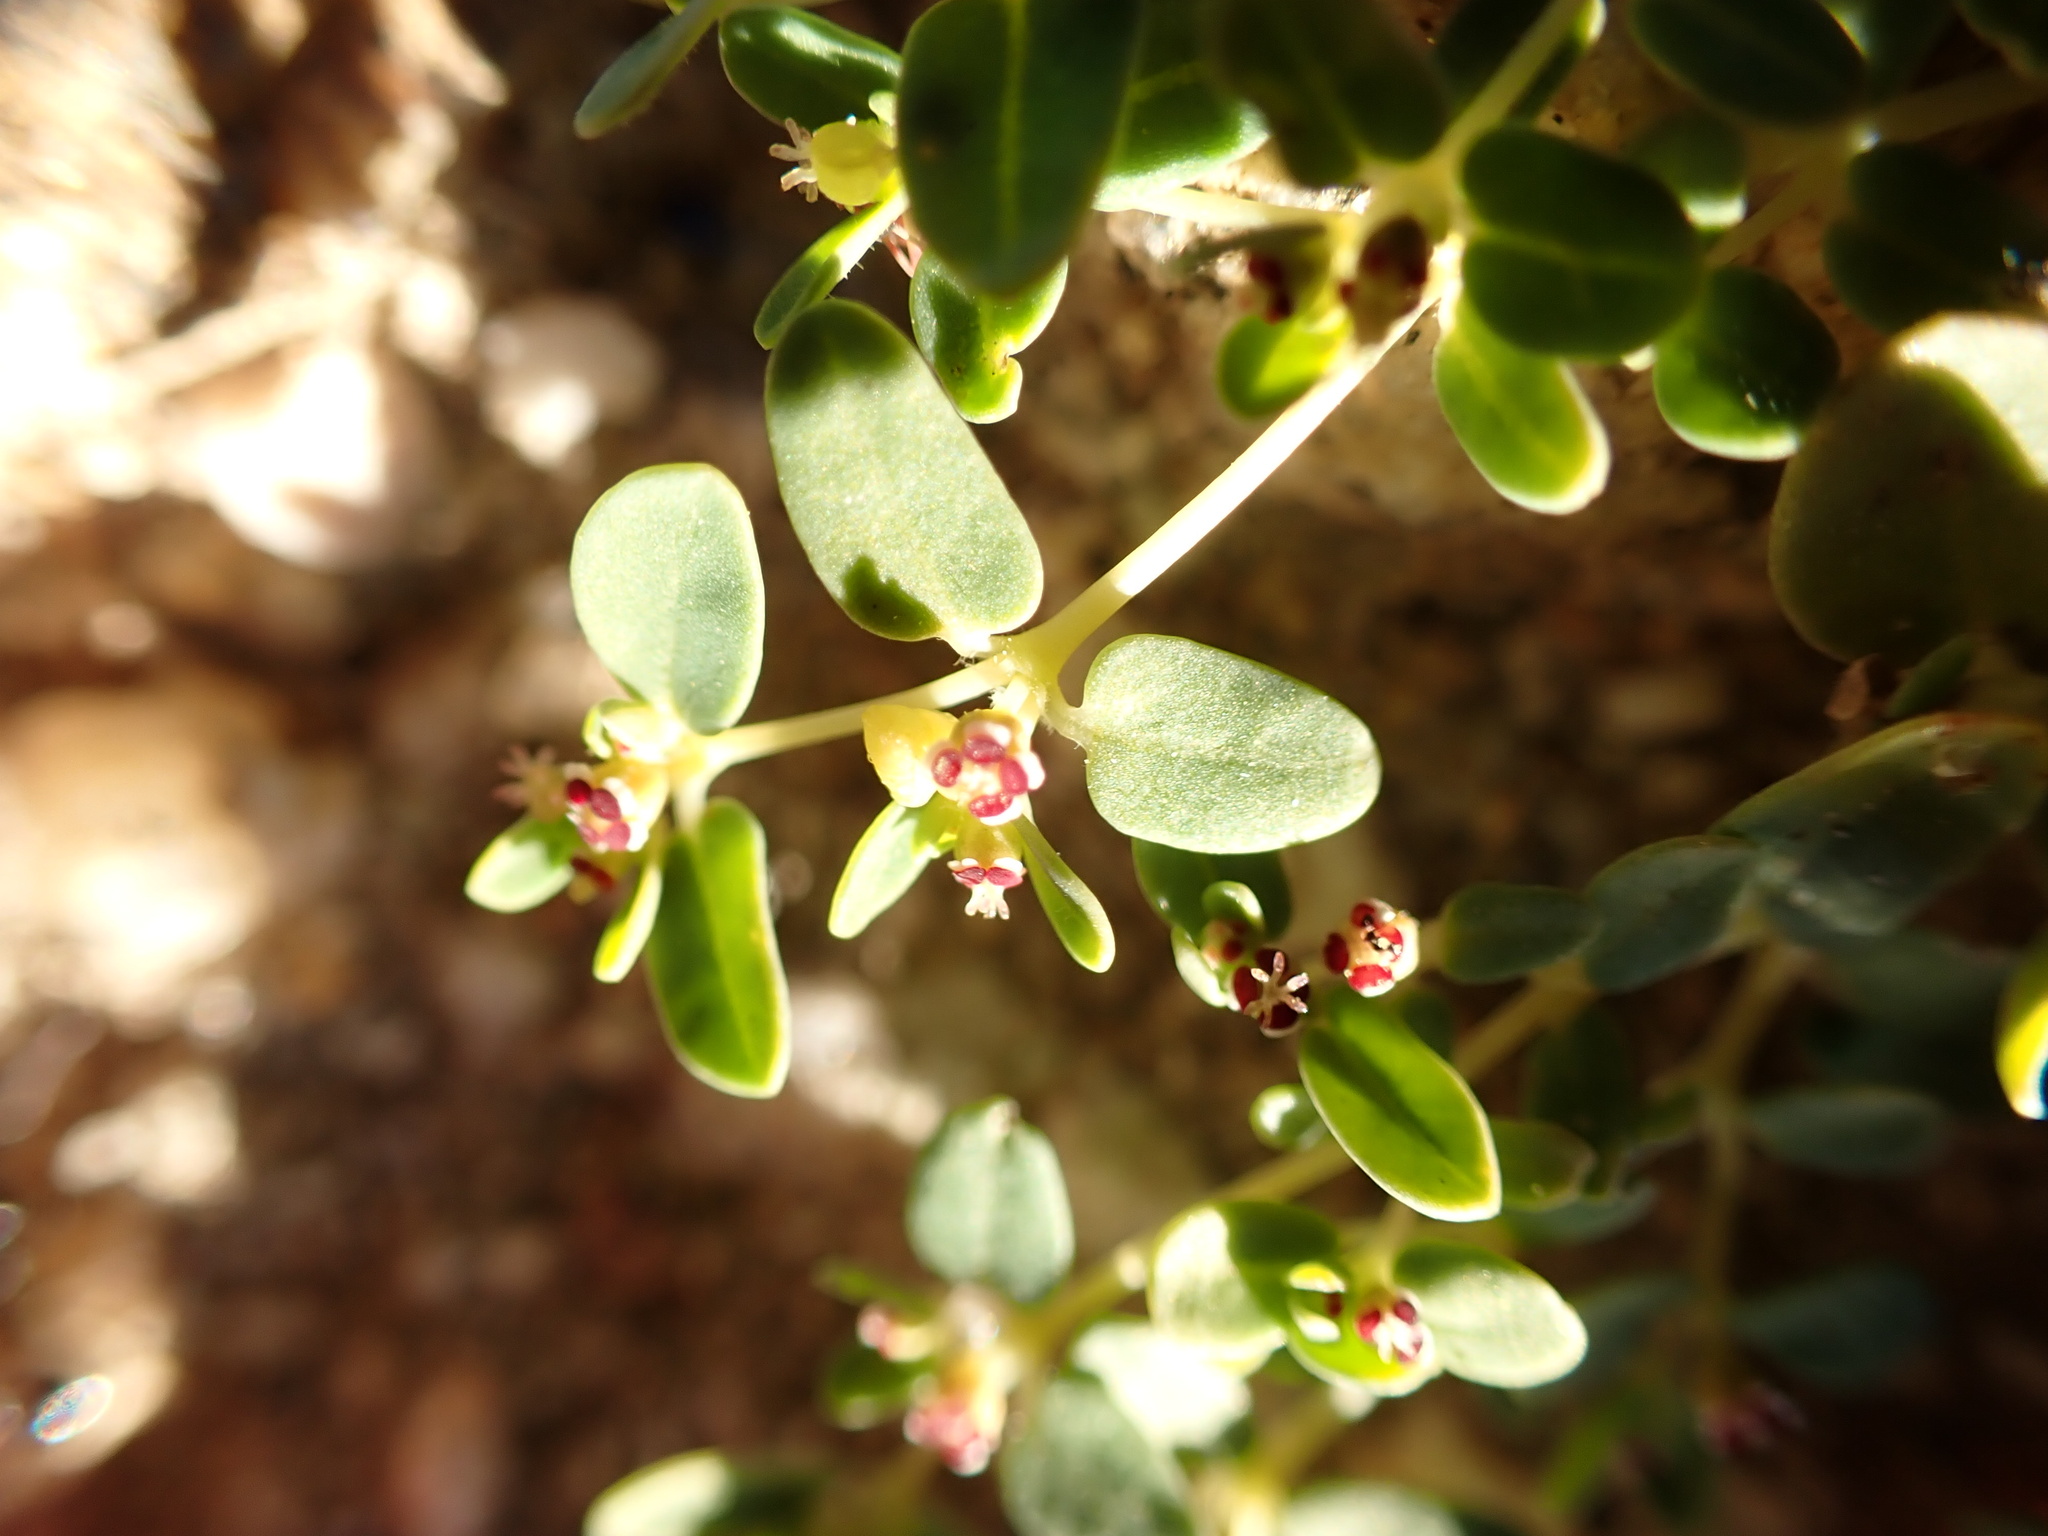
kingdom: Plantae
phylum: Tracheophyta
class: Magnoliopsida
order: Malpighiales
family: Euphorbiaceae
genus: Euphorbia
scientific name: Euphorbia polycarpa
